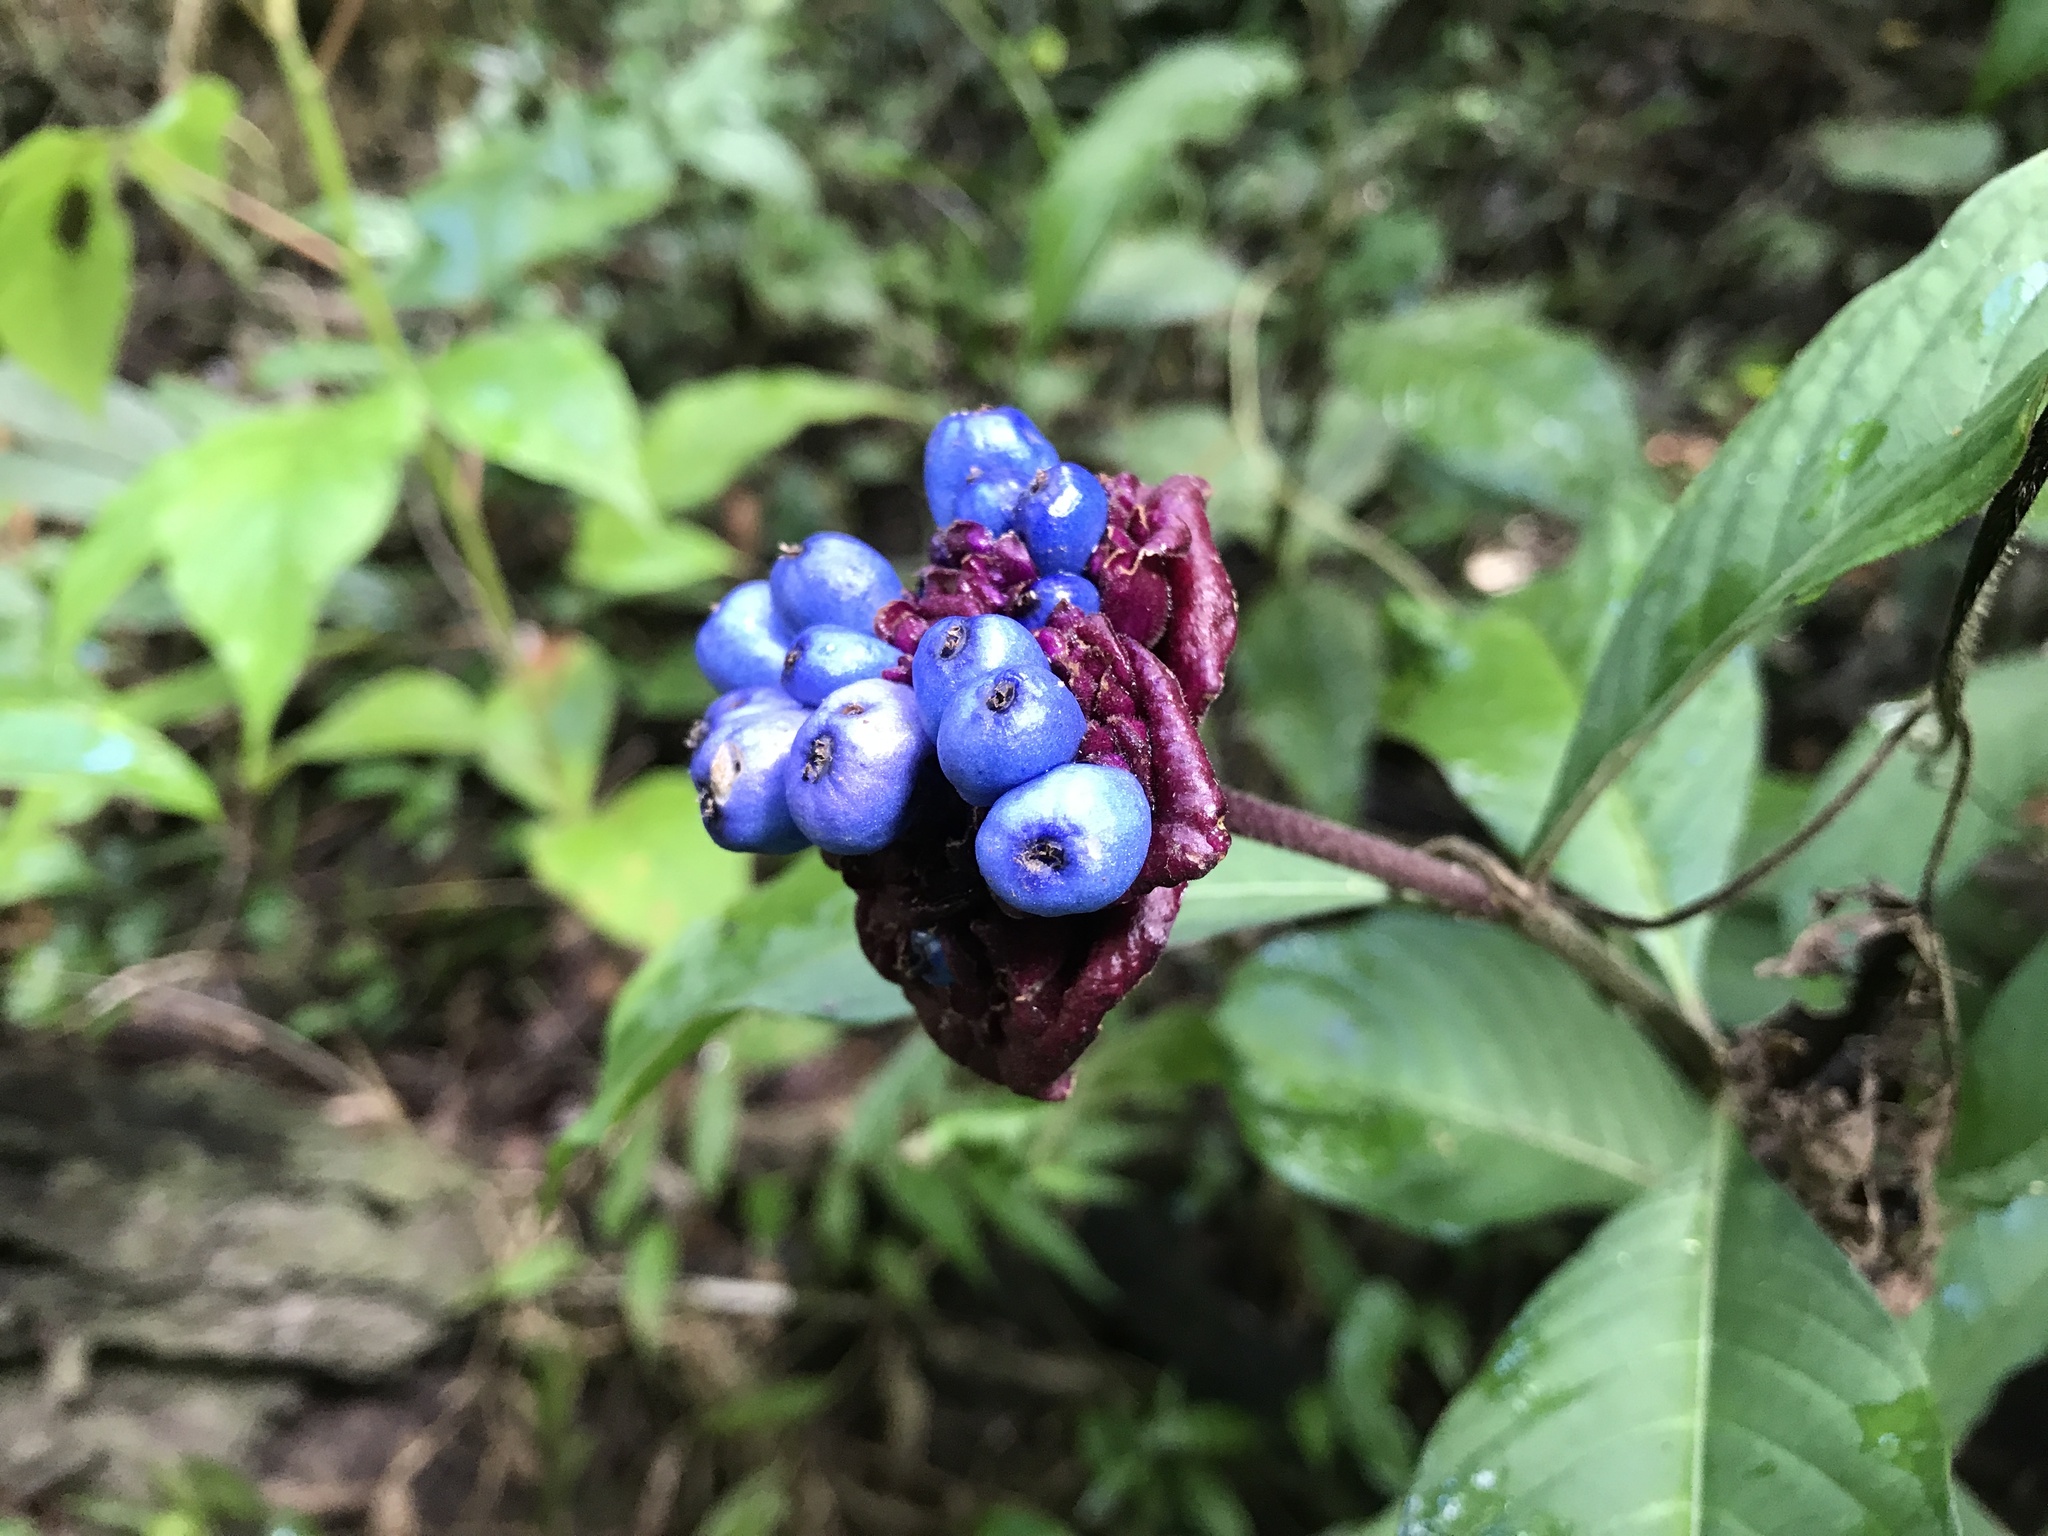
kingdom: Plantae
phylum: Tracheophyta
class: Magnoliopsida
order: Gentianales
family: Rubiaceae
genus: Palicourea
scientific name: Palicourea colorata
